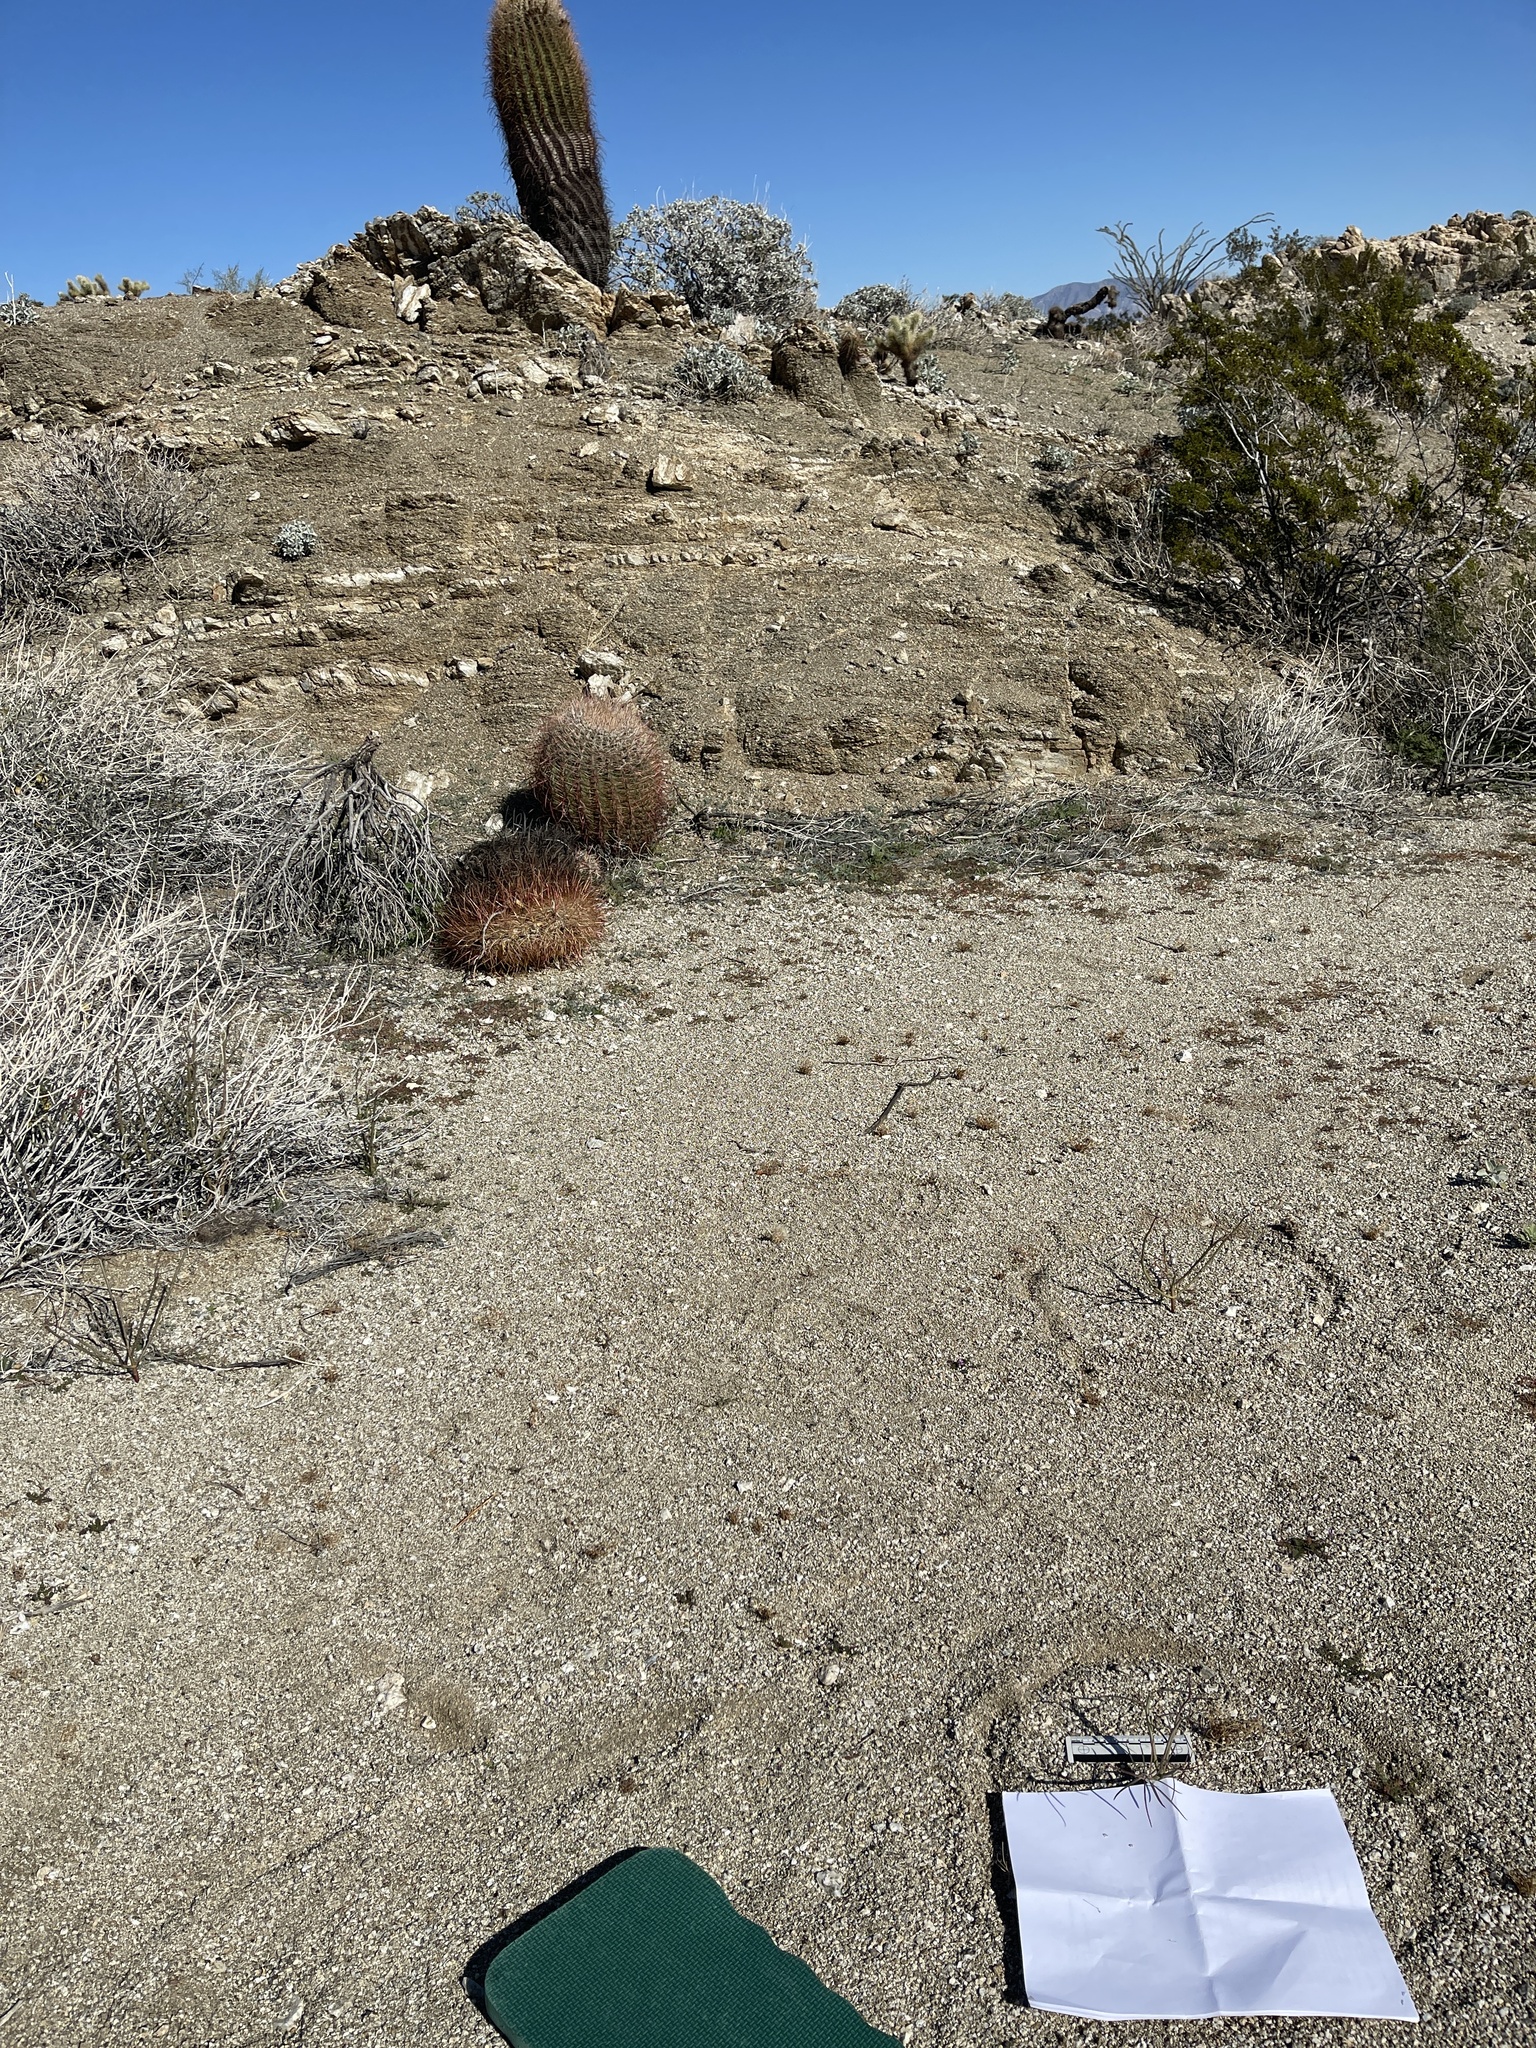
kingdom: Plantae
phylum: Tracheophyta
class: Magnoliopsida
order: Malpighiales
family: Euphorbiaceae
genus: Euphorbia
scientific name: Euphorbia eriantha
